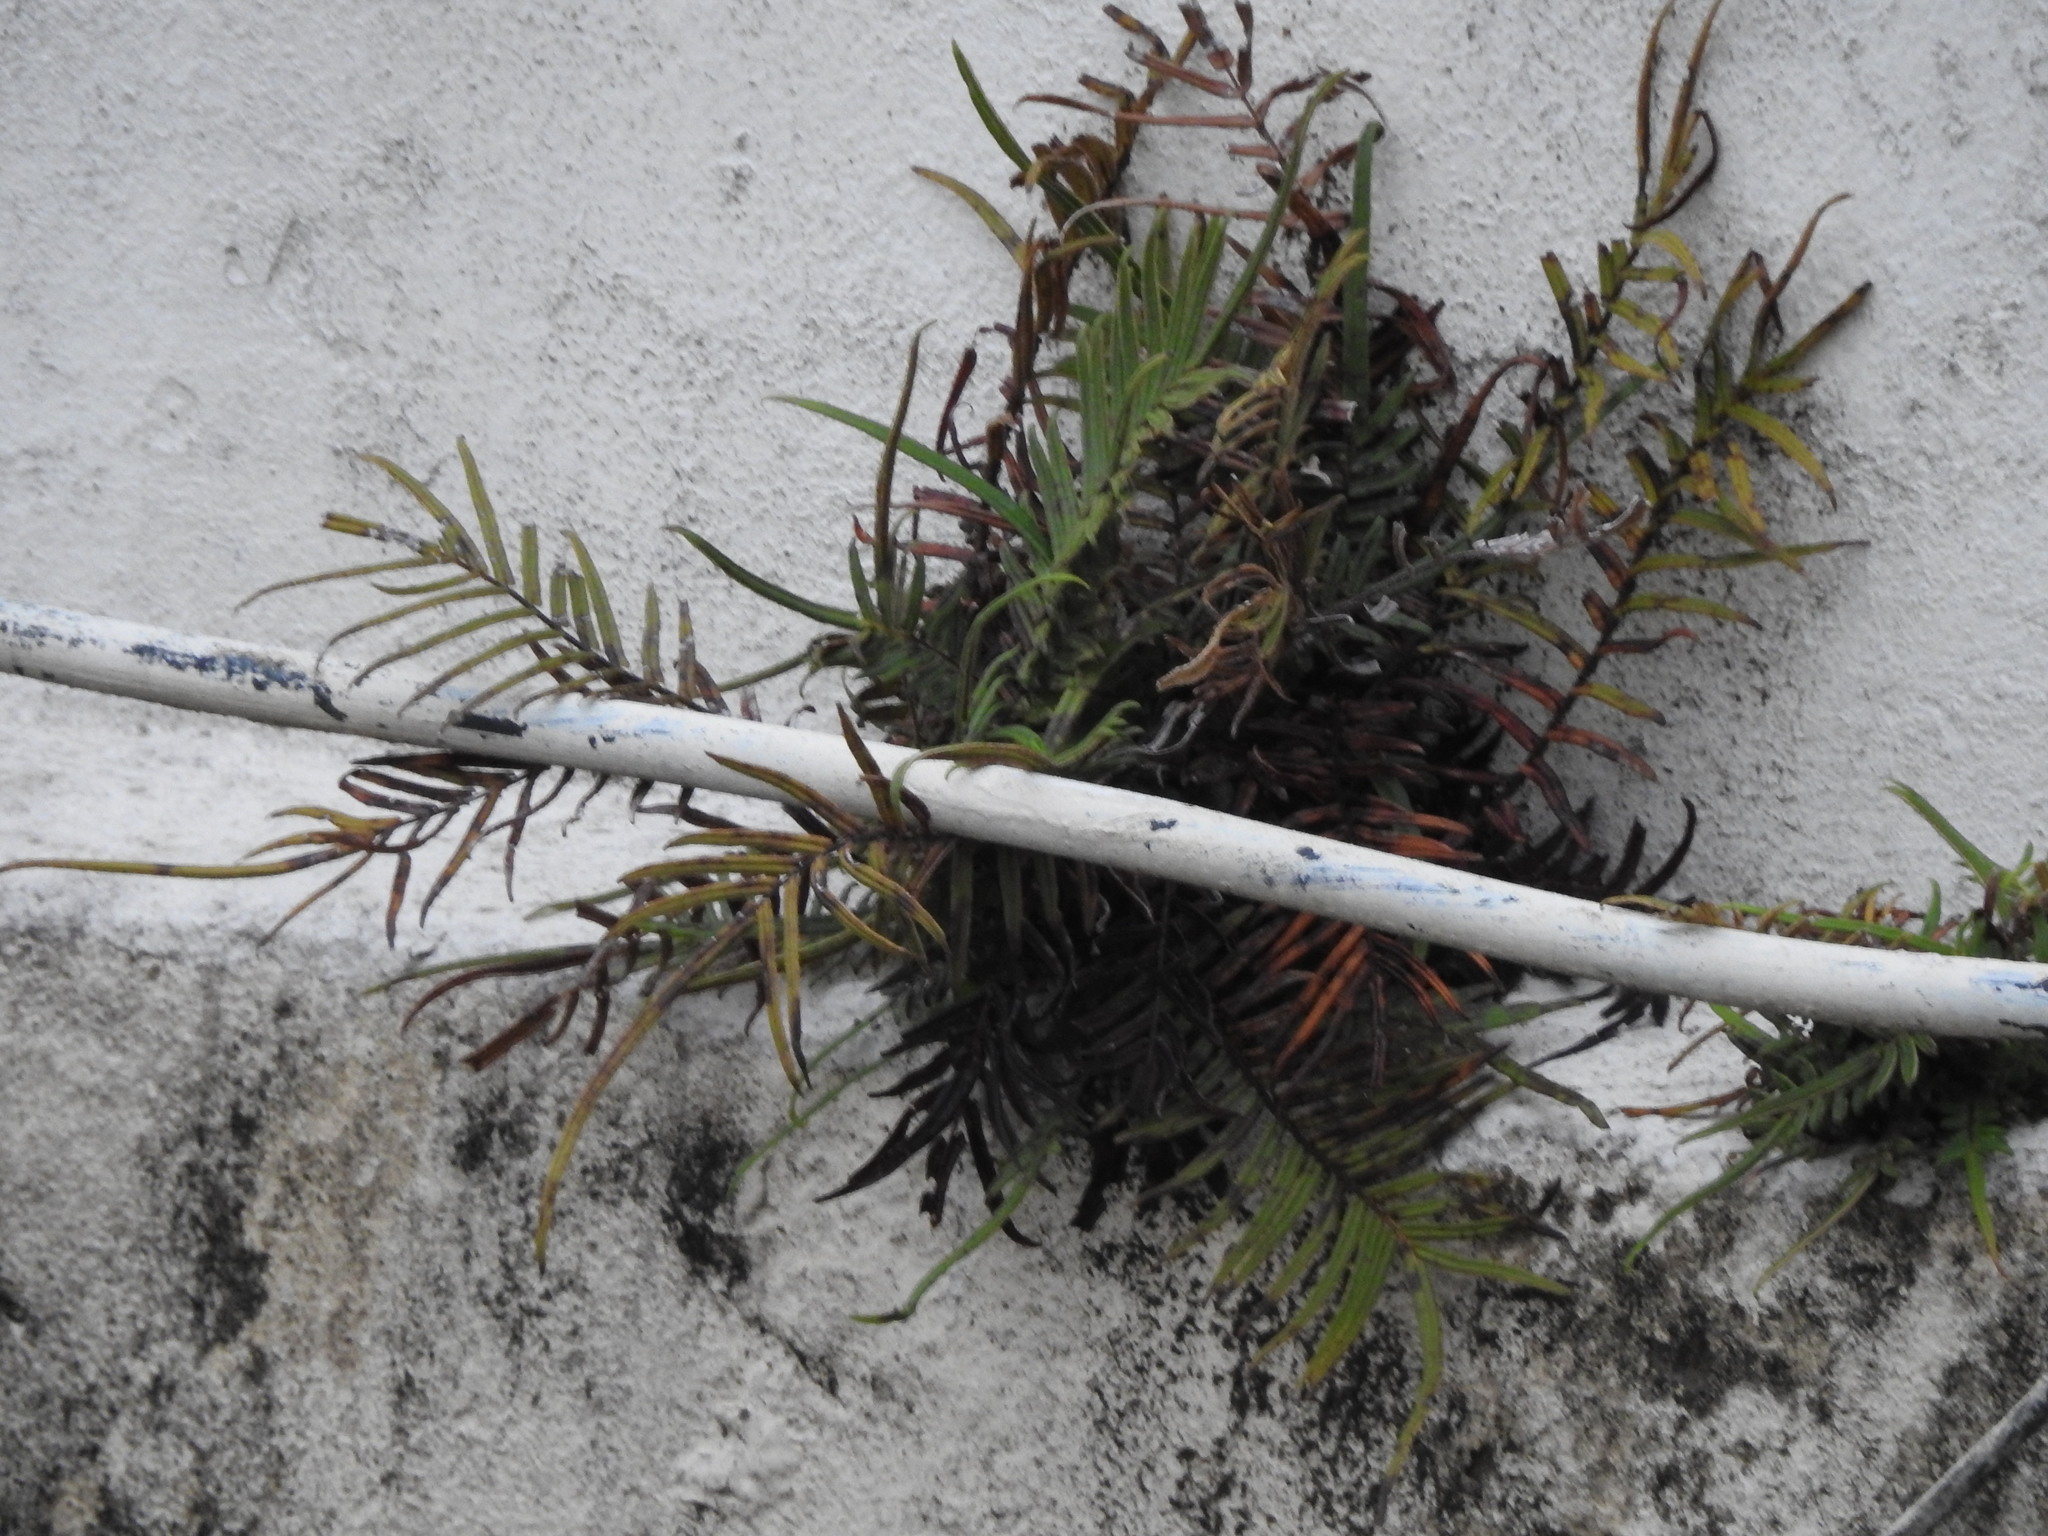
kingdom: Plantae
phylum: Tracheophyta
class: Polypodiopsida
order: Polypodiales
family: Pteridaceae
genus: Pteris
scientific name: Pteris vittata
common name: Ladder brake
